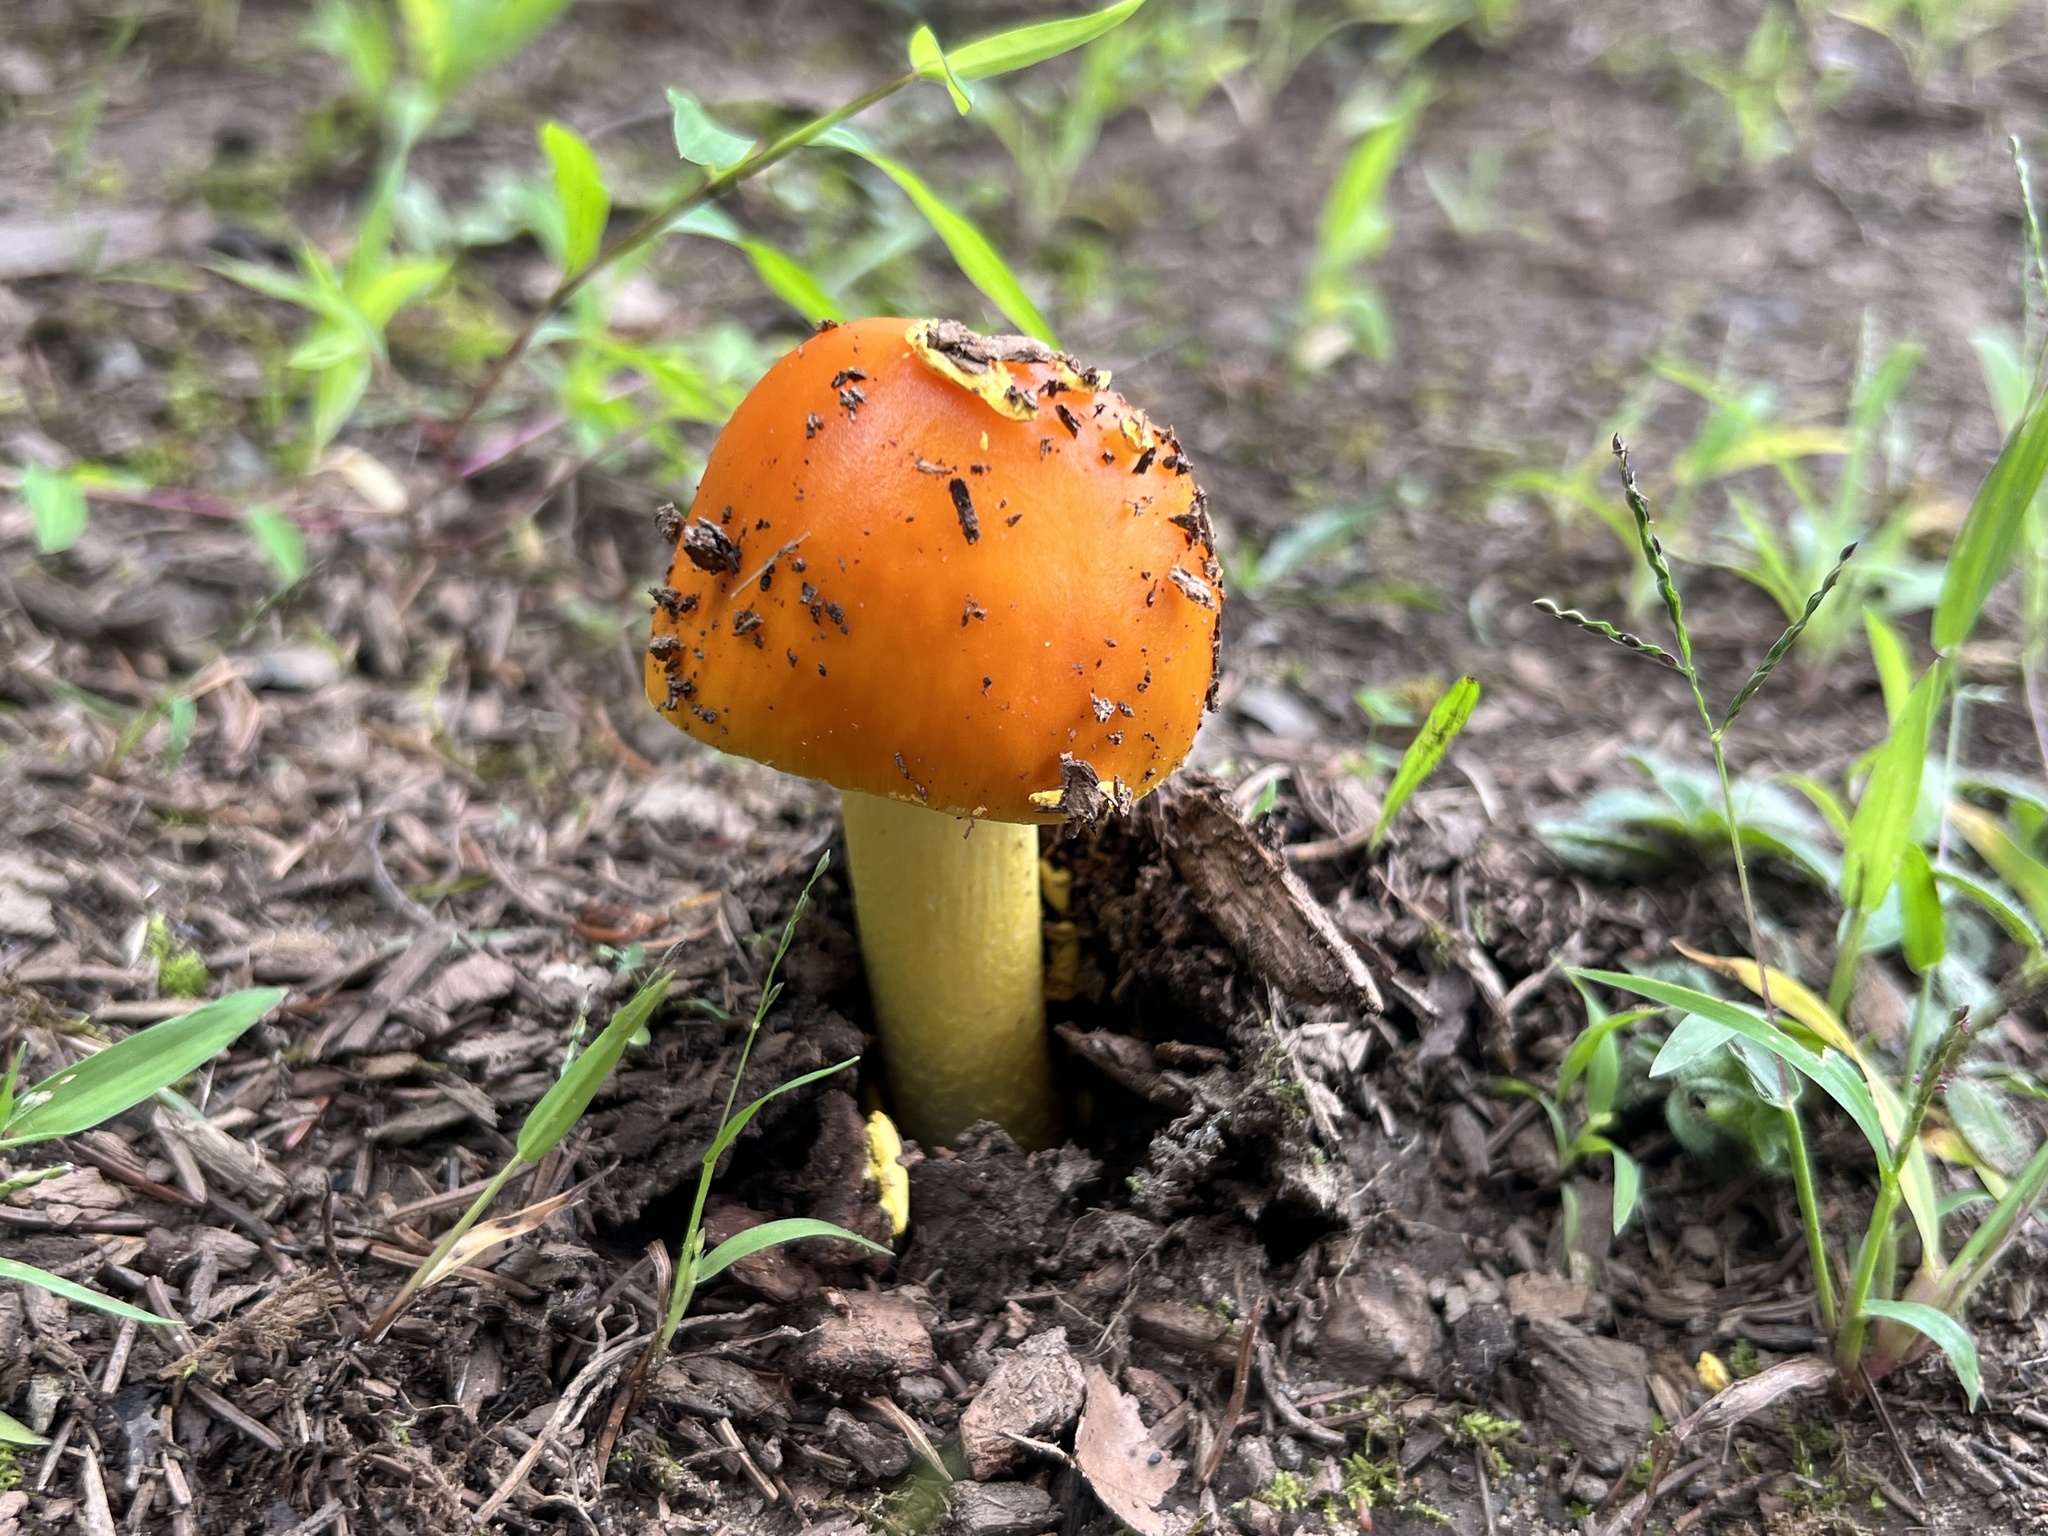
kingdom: Fungi
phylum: Basidiomycota
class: Agaricomycetes
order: Agaricales
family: Amanitaceae
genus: Amanita
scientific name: Amanita flavoconia
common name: Yellow patches
